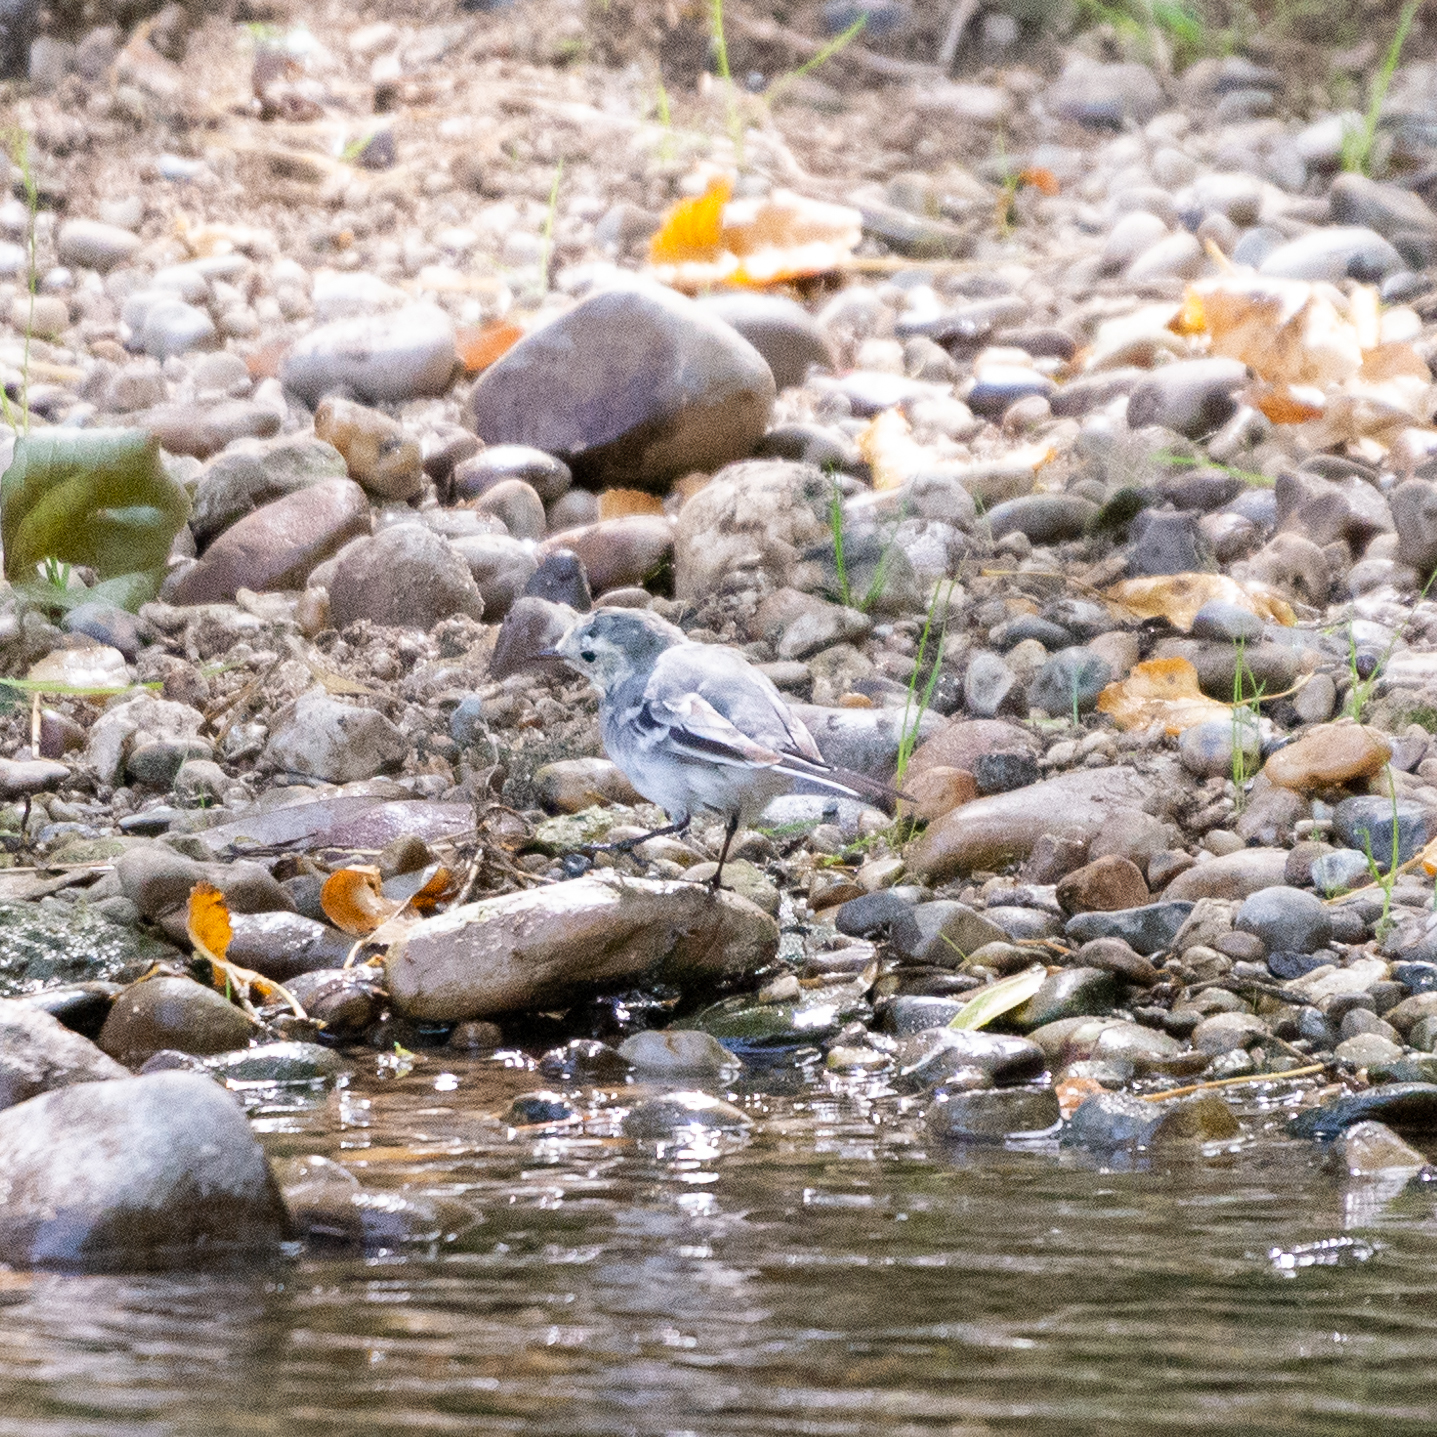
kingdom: Animalia
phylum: Chordata
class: Aves
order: Passeriformes
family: Motacillidae
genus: Motacilla
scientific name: Motacilla alba
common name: White wagtail
